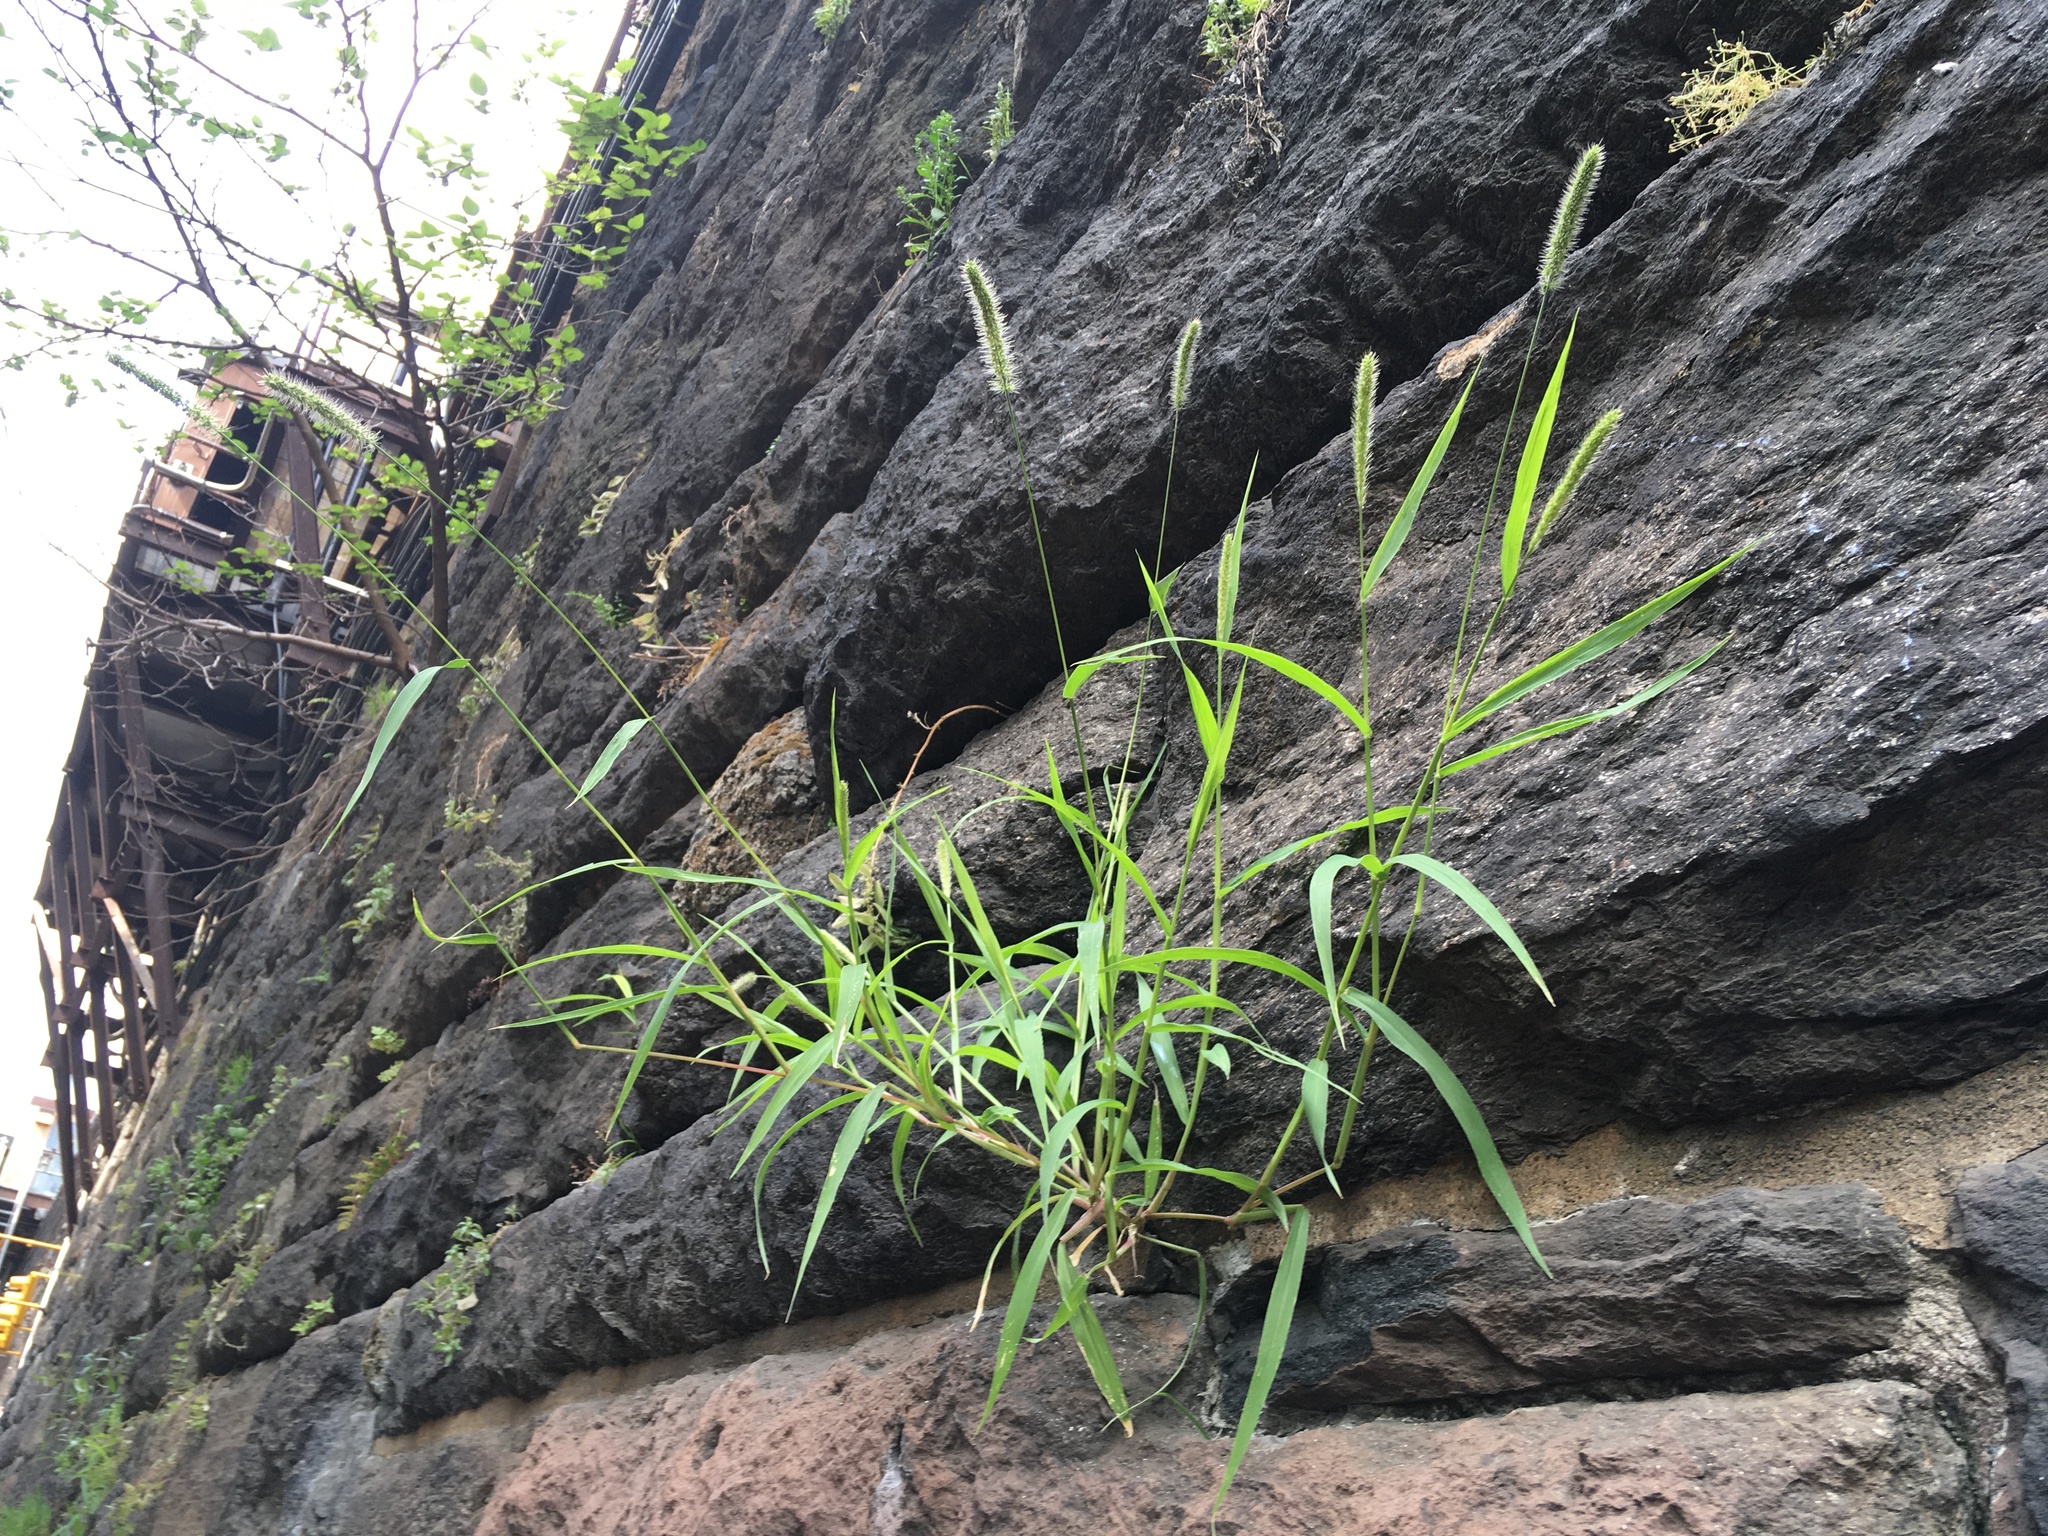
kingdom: Plantae
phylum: Tracheophyta
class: Liliopsida
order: Poales
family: Poaceae
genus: Setaria
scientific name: Setaria viridis
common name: Green bristlegrass
